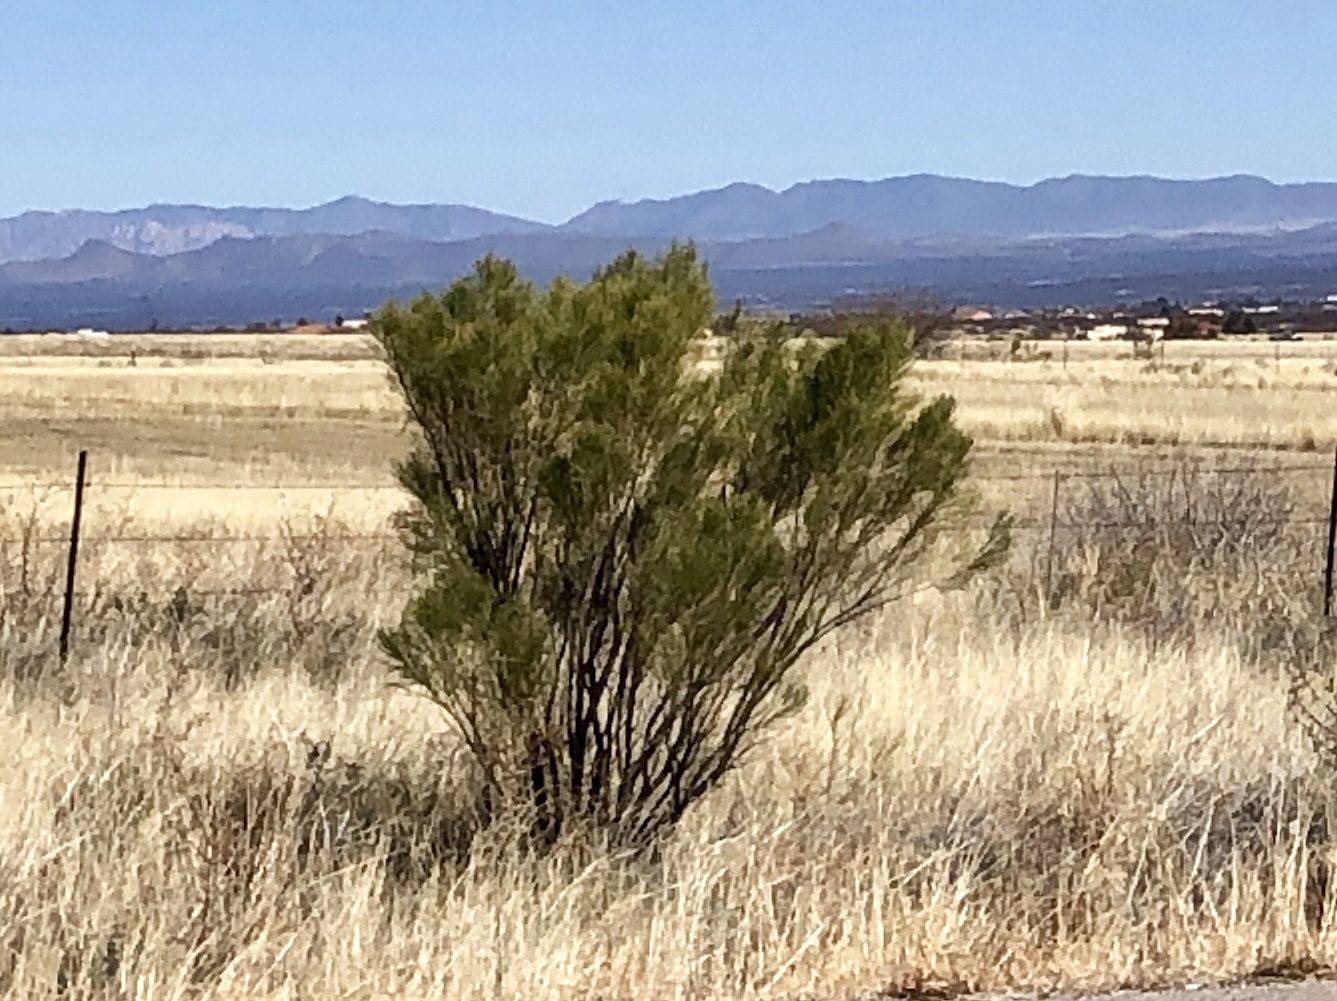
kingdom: Plantae
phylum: Tracheophyta
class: Magnoliopsida
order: Asterales
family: Asteraceae
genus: Baccharis
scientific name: Baccharis sarothroides
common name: Desert-broom
